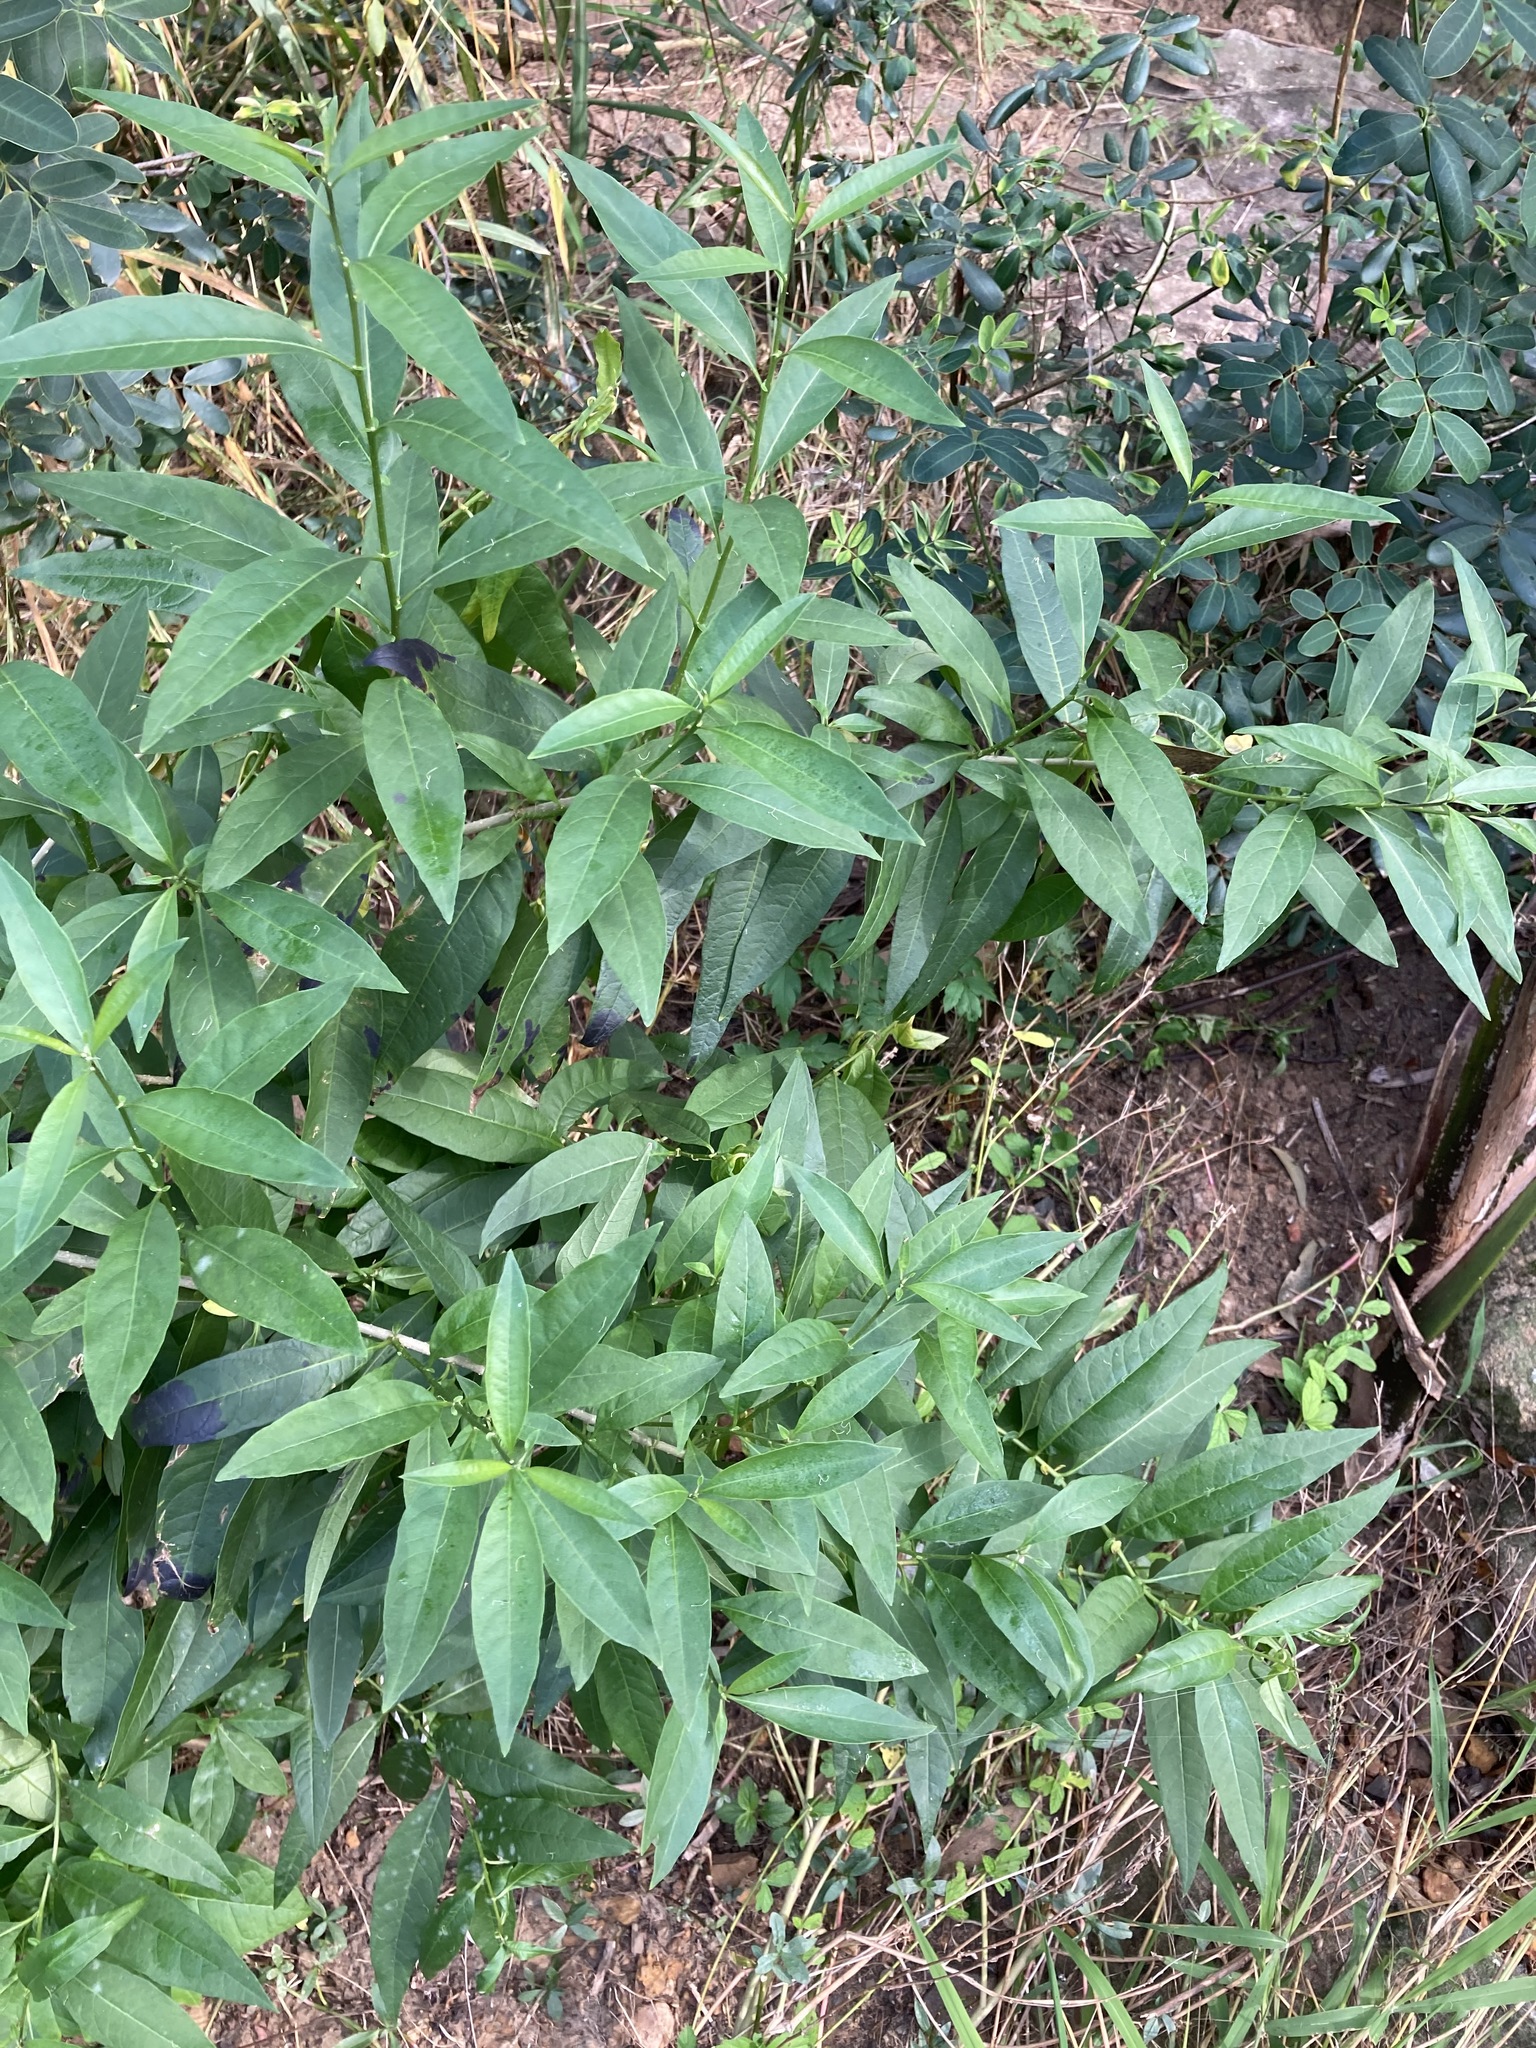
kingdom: Plantae
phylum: Tracheophyta
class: Magnoliopsida
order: Solanales
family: Solanaceae
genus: Cestrum
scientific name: Cestrum parqui
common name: Chilean cestrum
